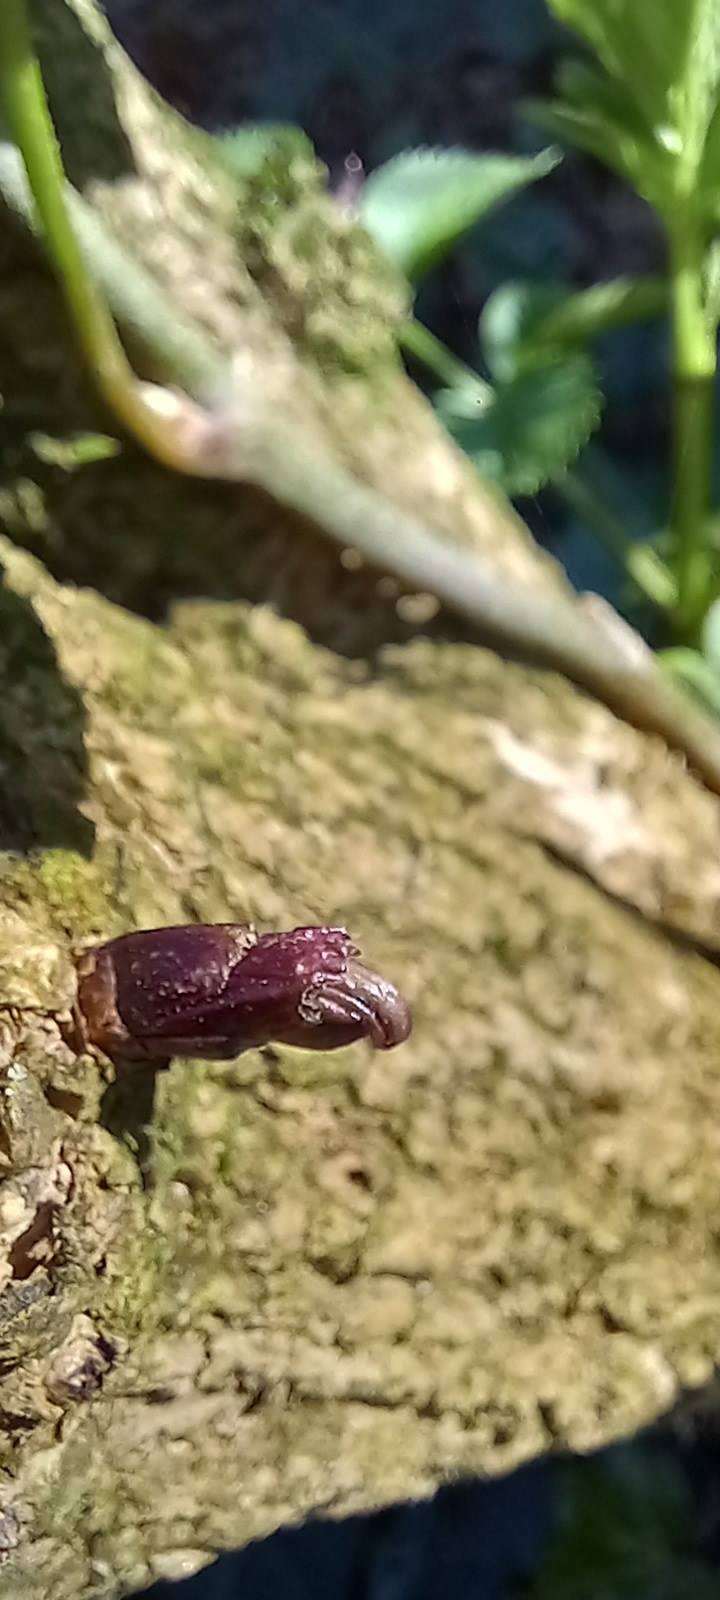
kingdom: Plantae
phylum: Tracheophyta
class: Magnoliopsida
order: Dipsacales
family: Viburnaceae
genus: Sambucus
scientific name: Sambucus nigra
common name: Elder
